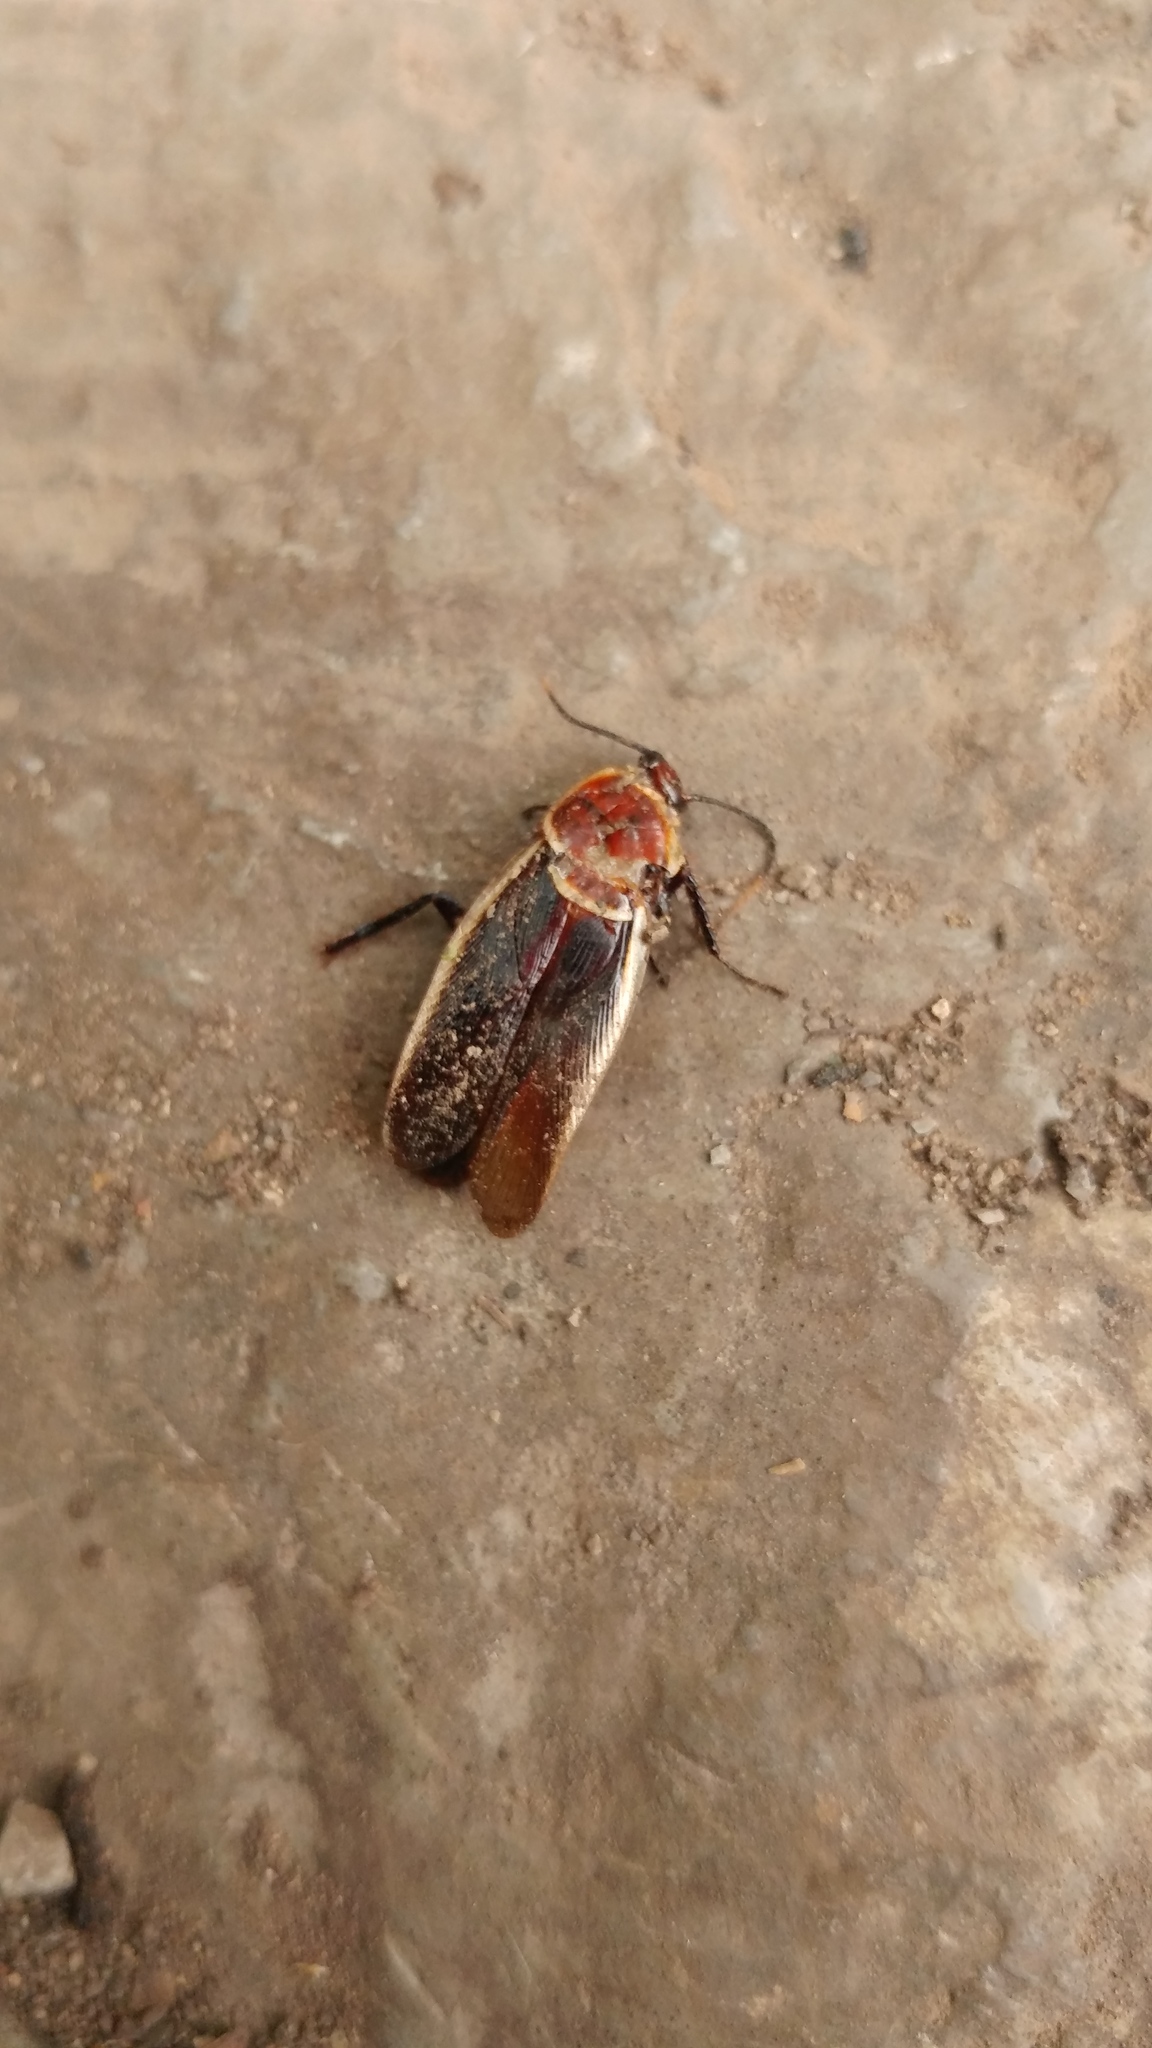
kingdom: Animalia
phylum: Arthropoda
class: Insecta
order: Blattodea
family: Ectobiidae
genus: Pseudomops
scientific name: Pseudomops septentrionalis
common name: Pale-bordered field cockroach
